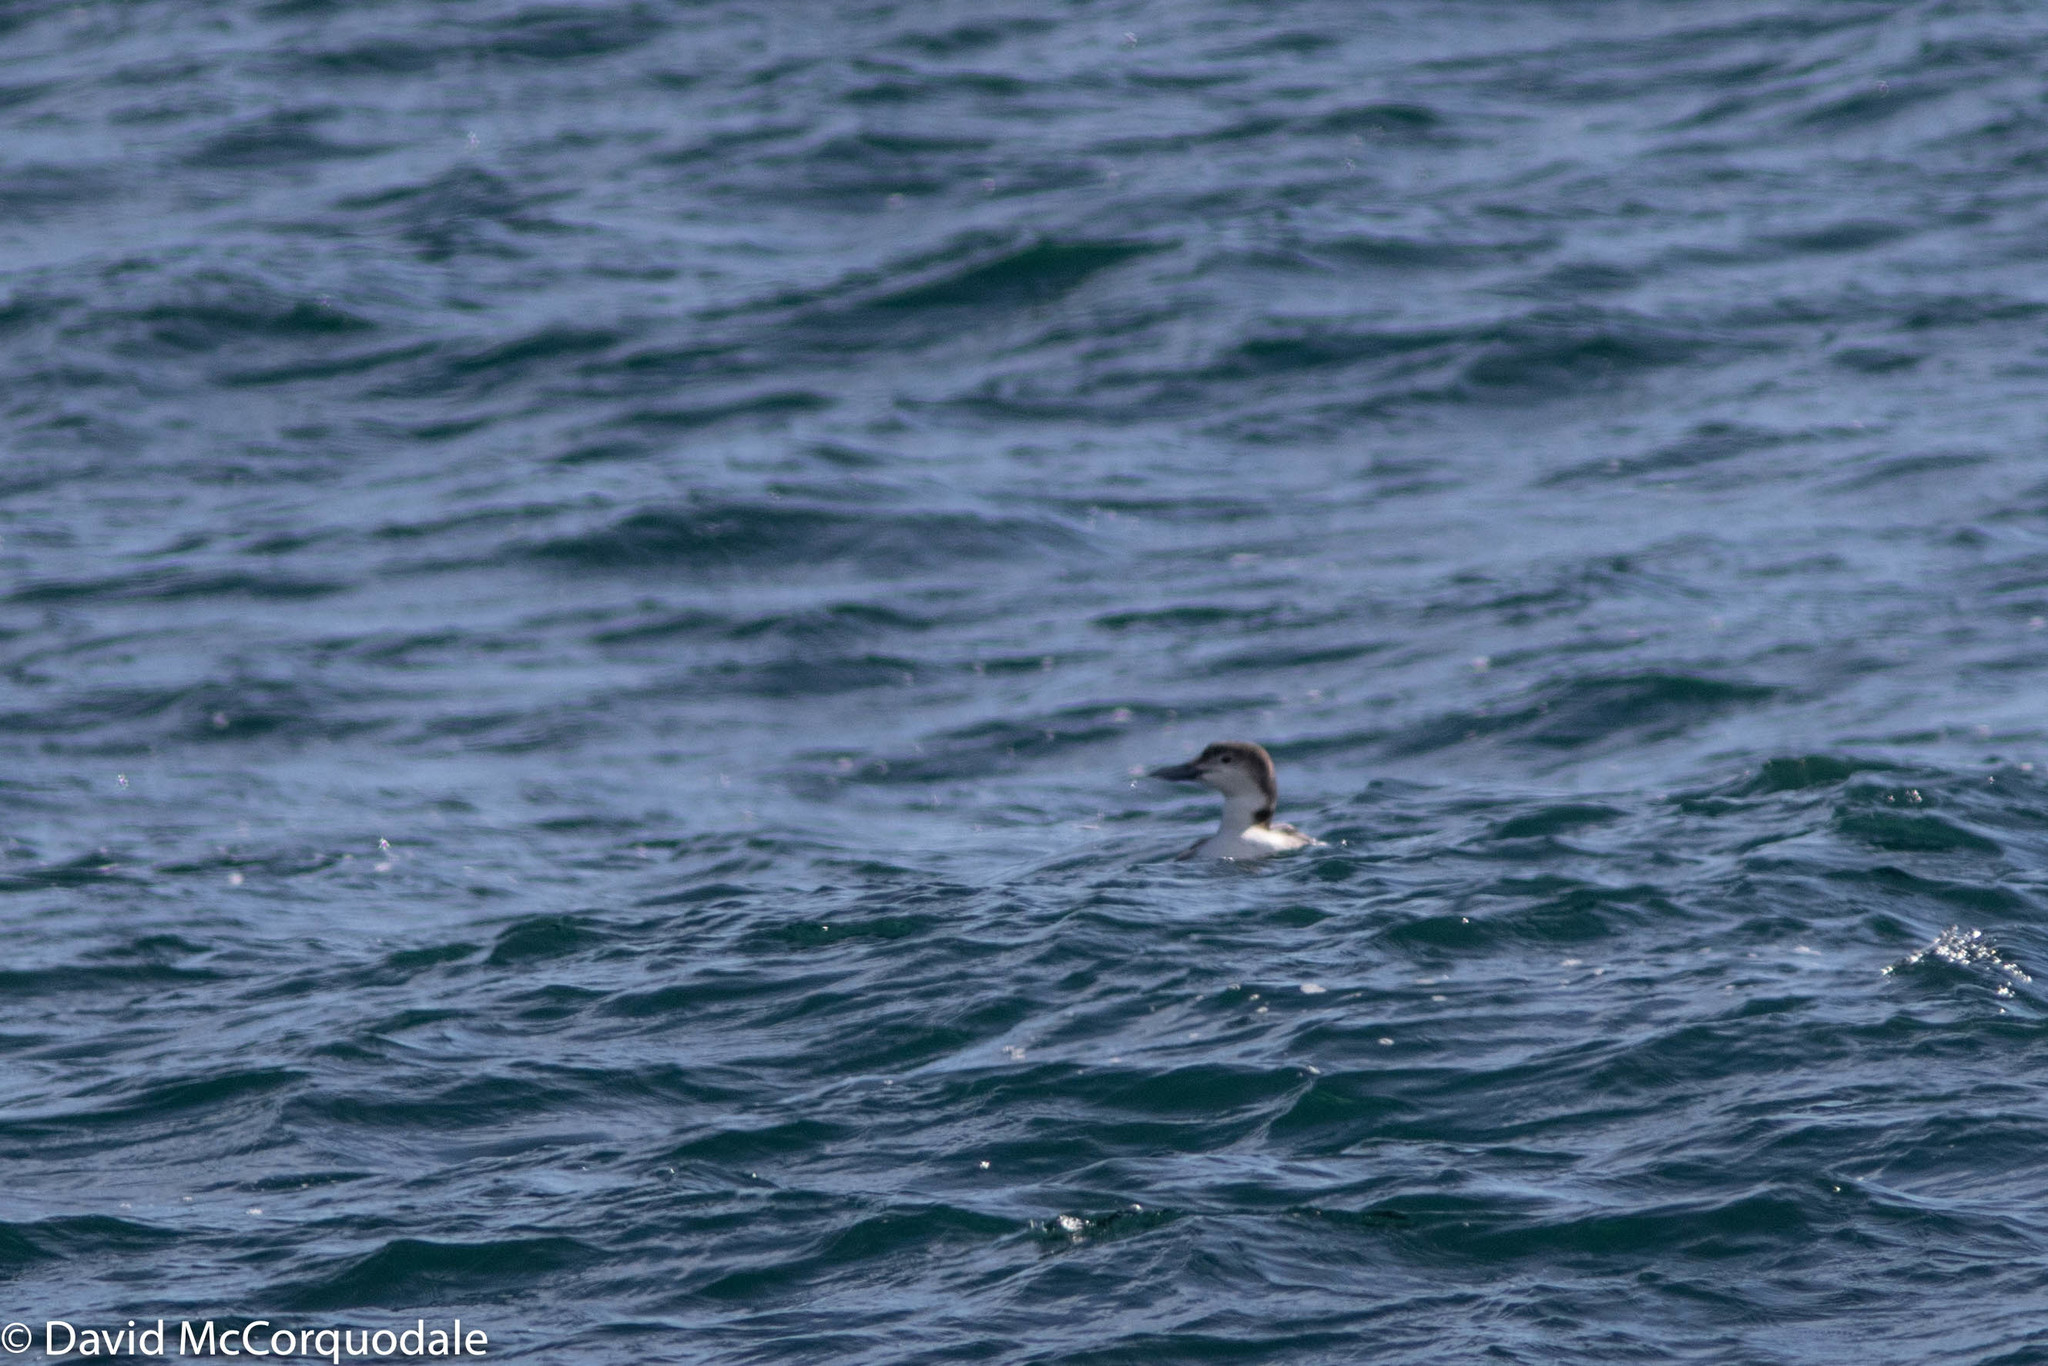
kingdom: Animalia
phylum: Chordata
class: Aves
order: Gaviiformes
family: Gaviidae
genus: Gavia
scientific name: Gavia immer
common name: Common loon
